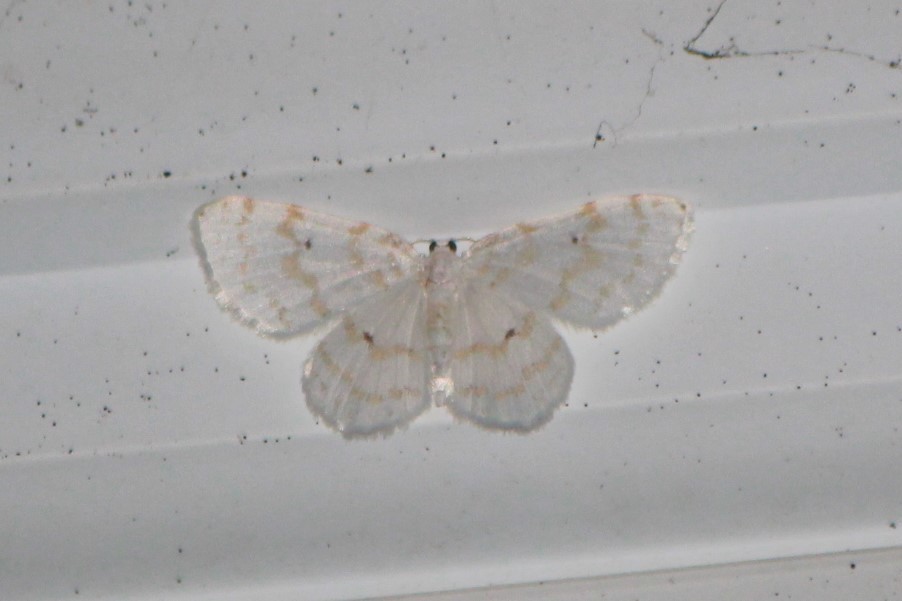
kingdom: Animalia
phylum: Arthropoda
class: Insecta
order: Lepidoptera
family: Geometridae
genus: Hydrelia
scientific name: Hydrelia albifera
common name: Fragile white carpet
